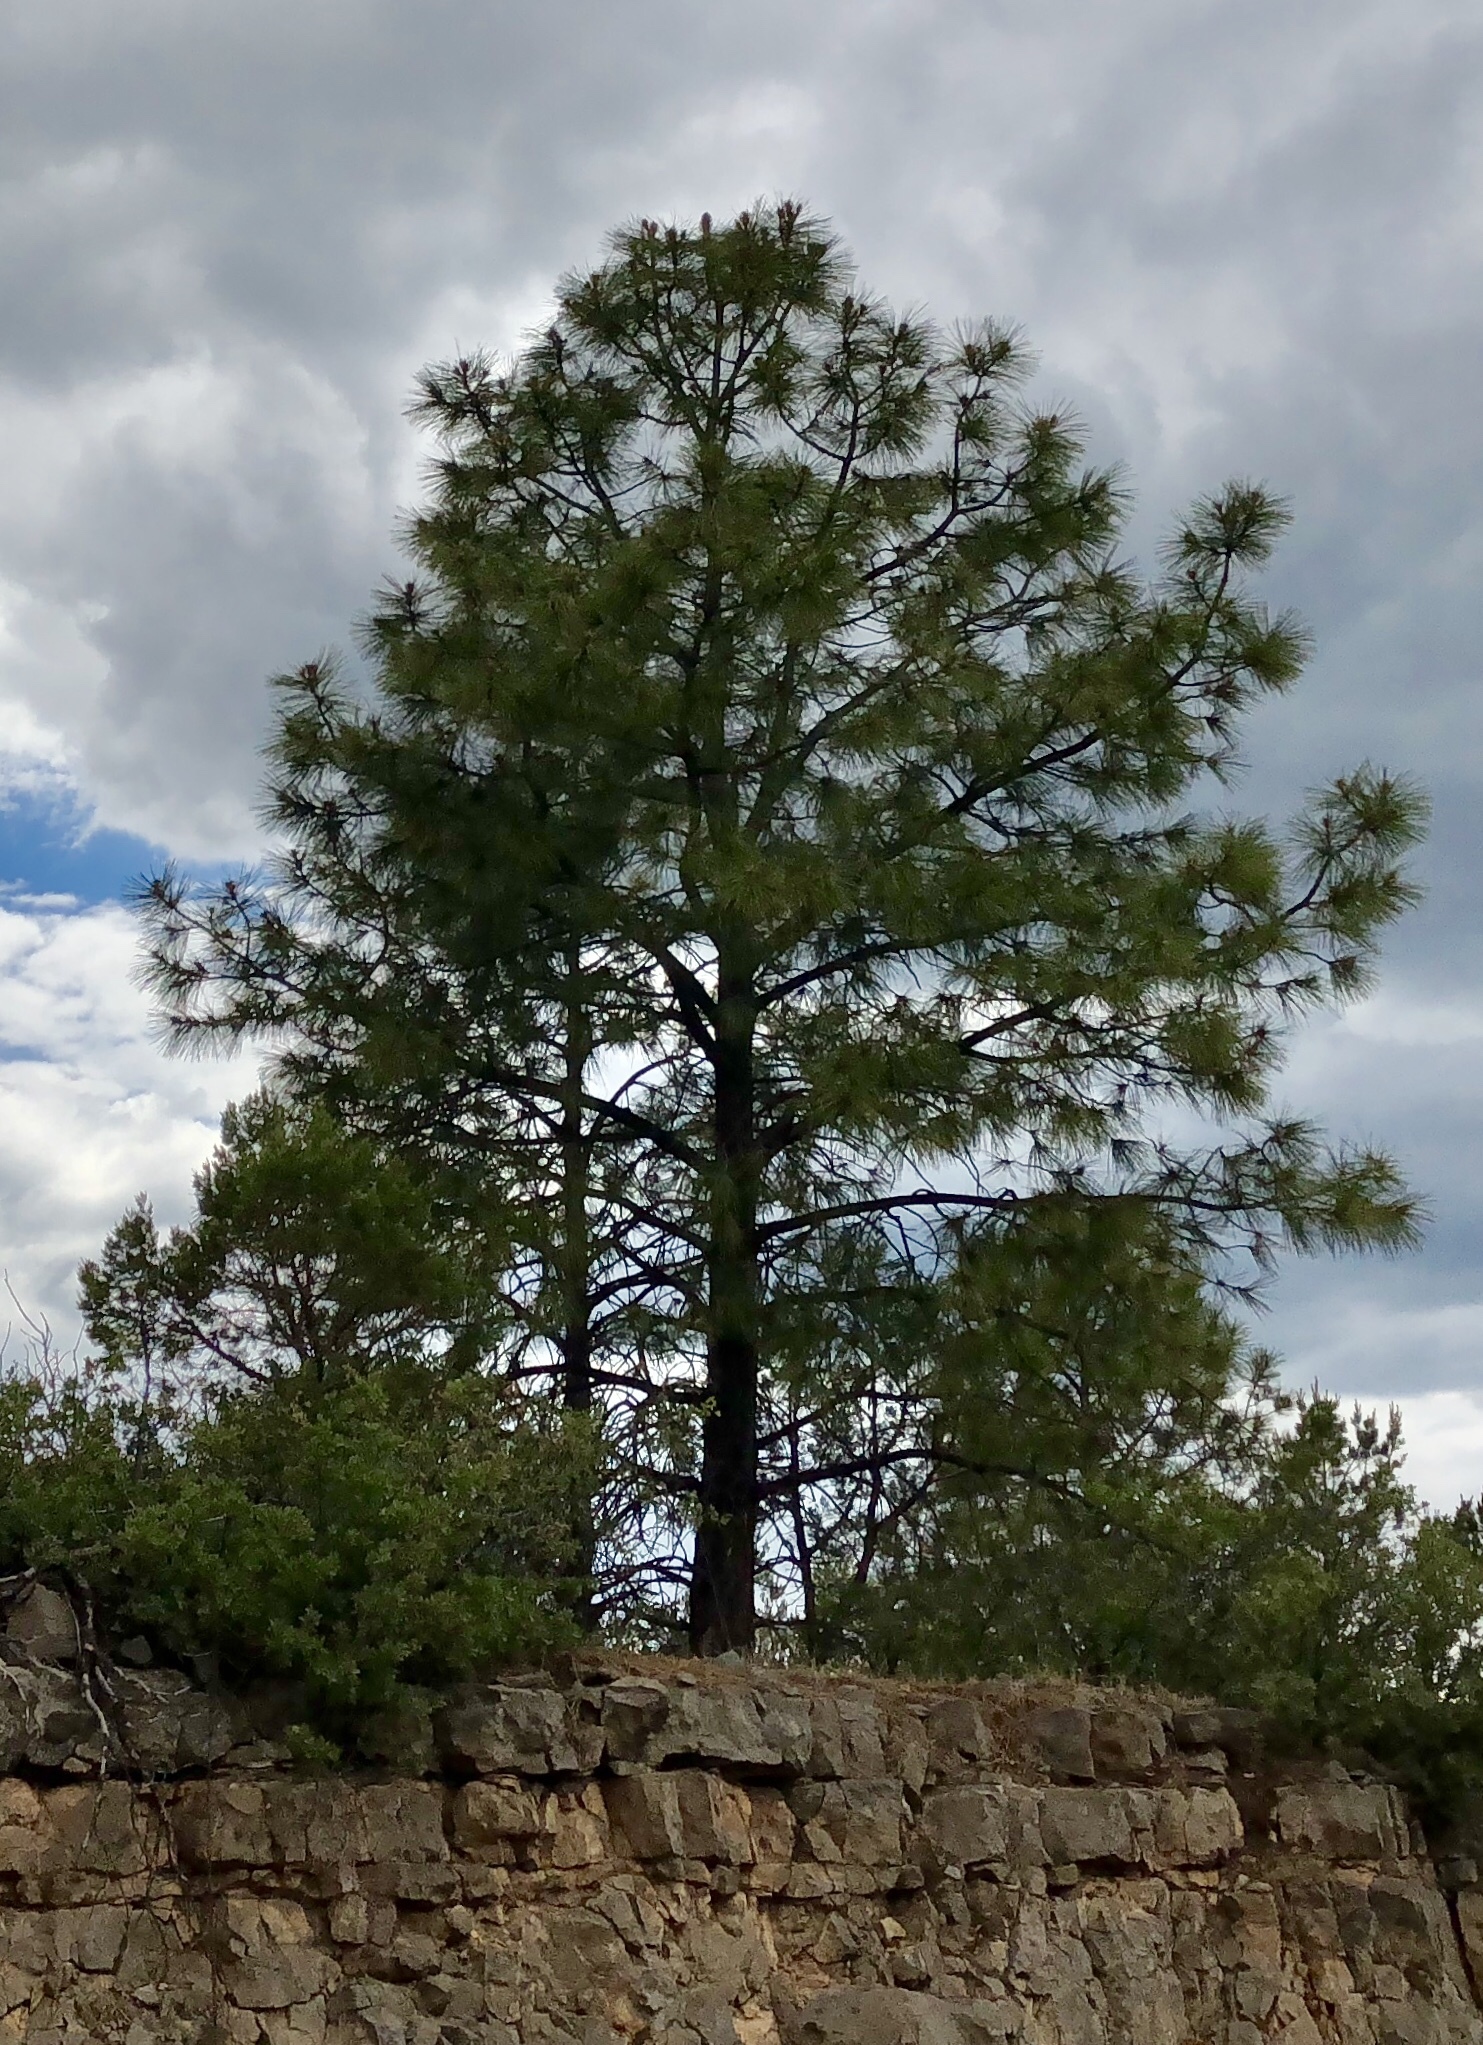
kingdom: Plantae
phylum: Tracheophyta
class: Pinopsida
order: Pinales
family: Pinaceae
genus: Pinus
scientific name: Pinus ponderosa
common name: Western yellow-pine
